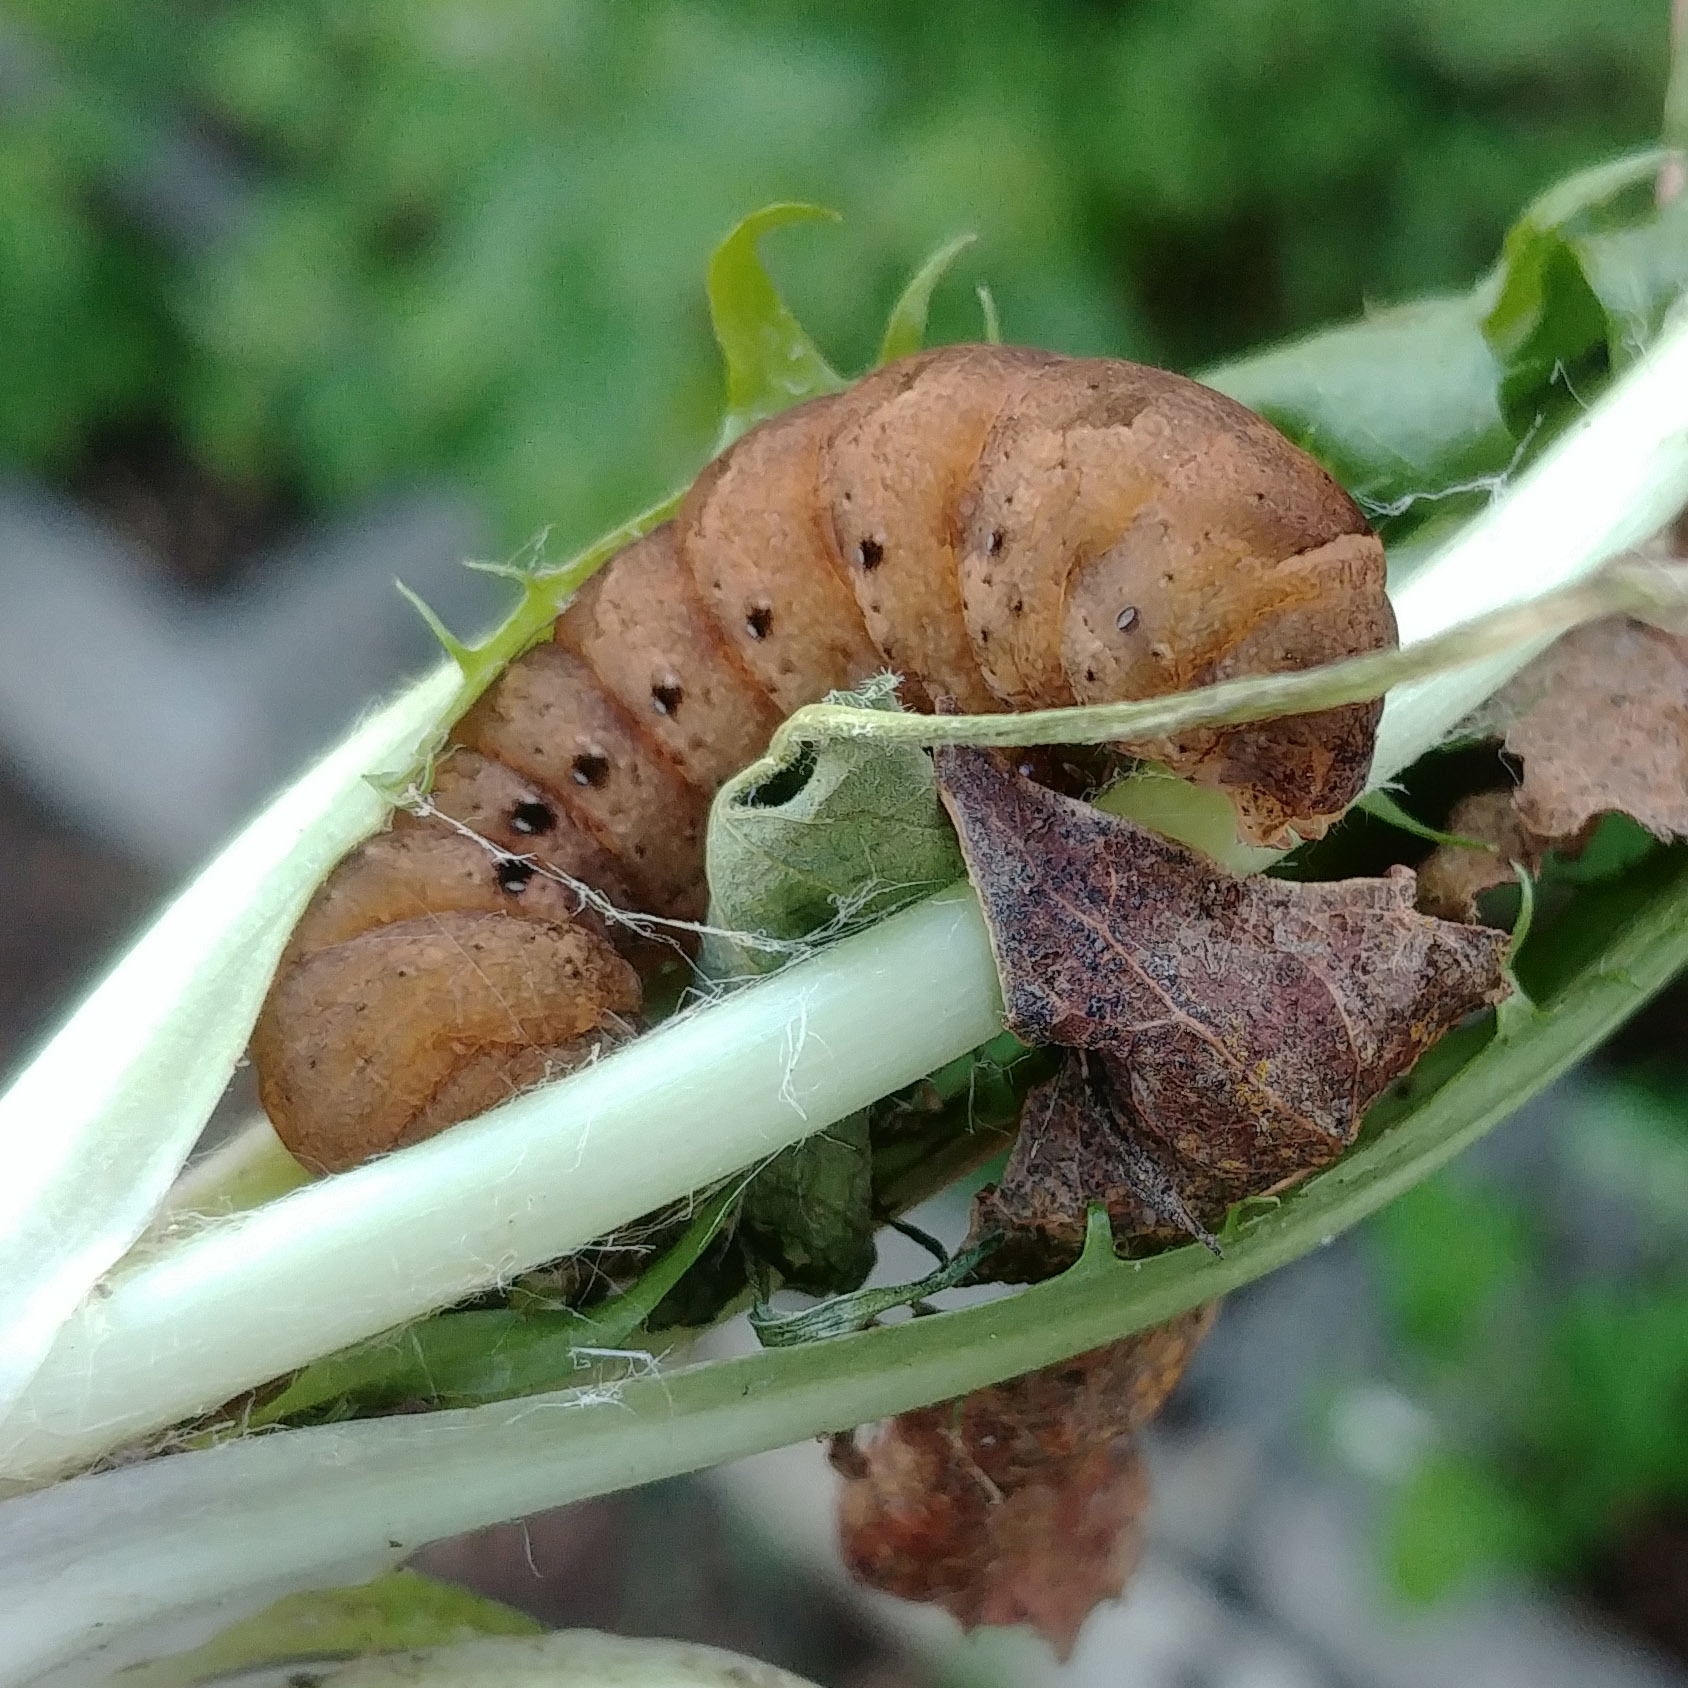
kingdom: Animalia
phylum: Arthropoda
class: Insecta
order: Lepidoptera
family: Noctuidae
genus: Noctua
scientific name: Noctua fimbriata
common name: Broad-bordered yellow underwing
